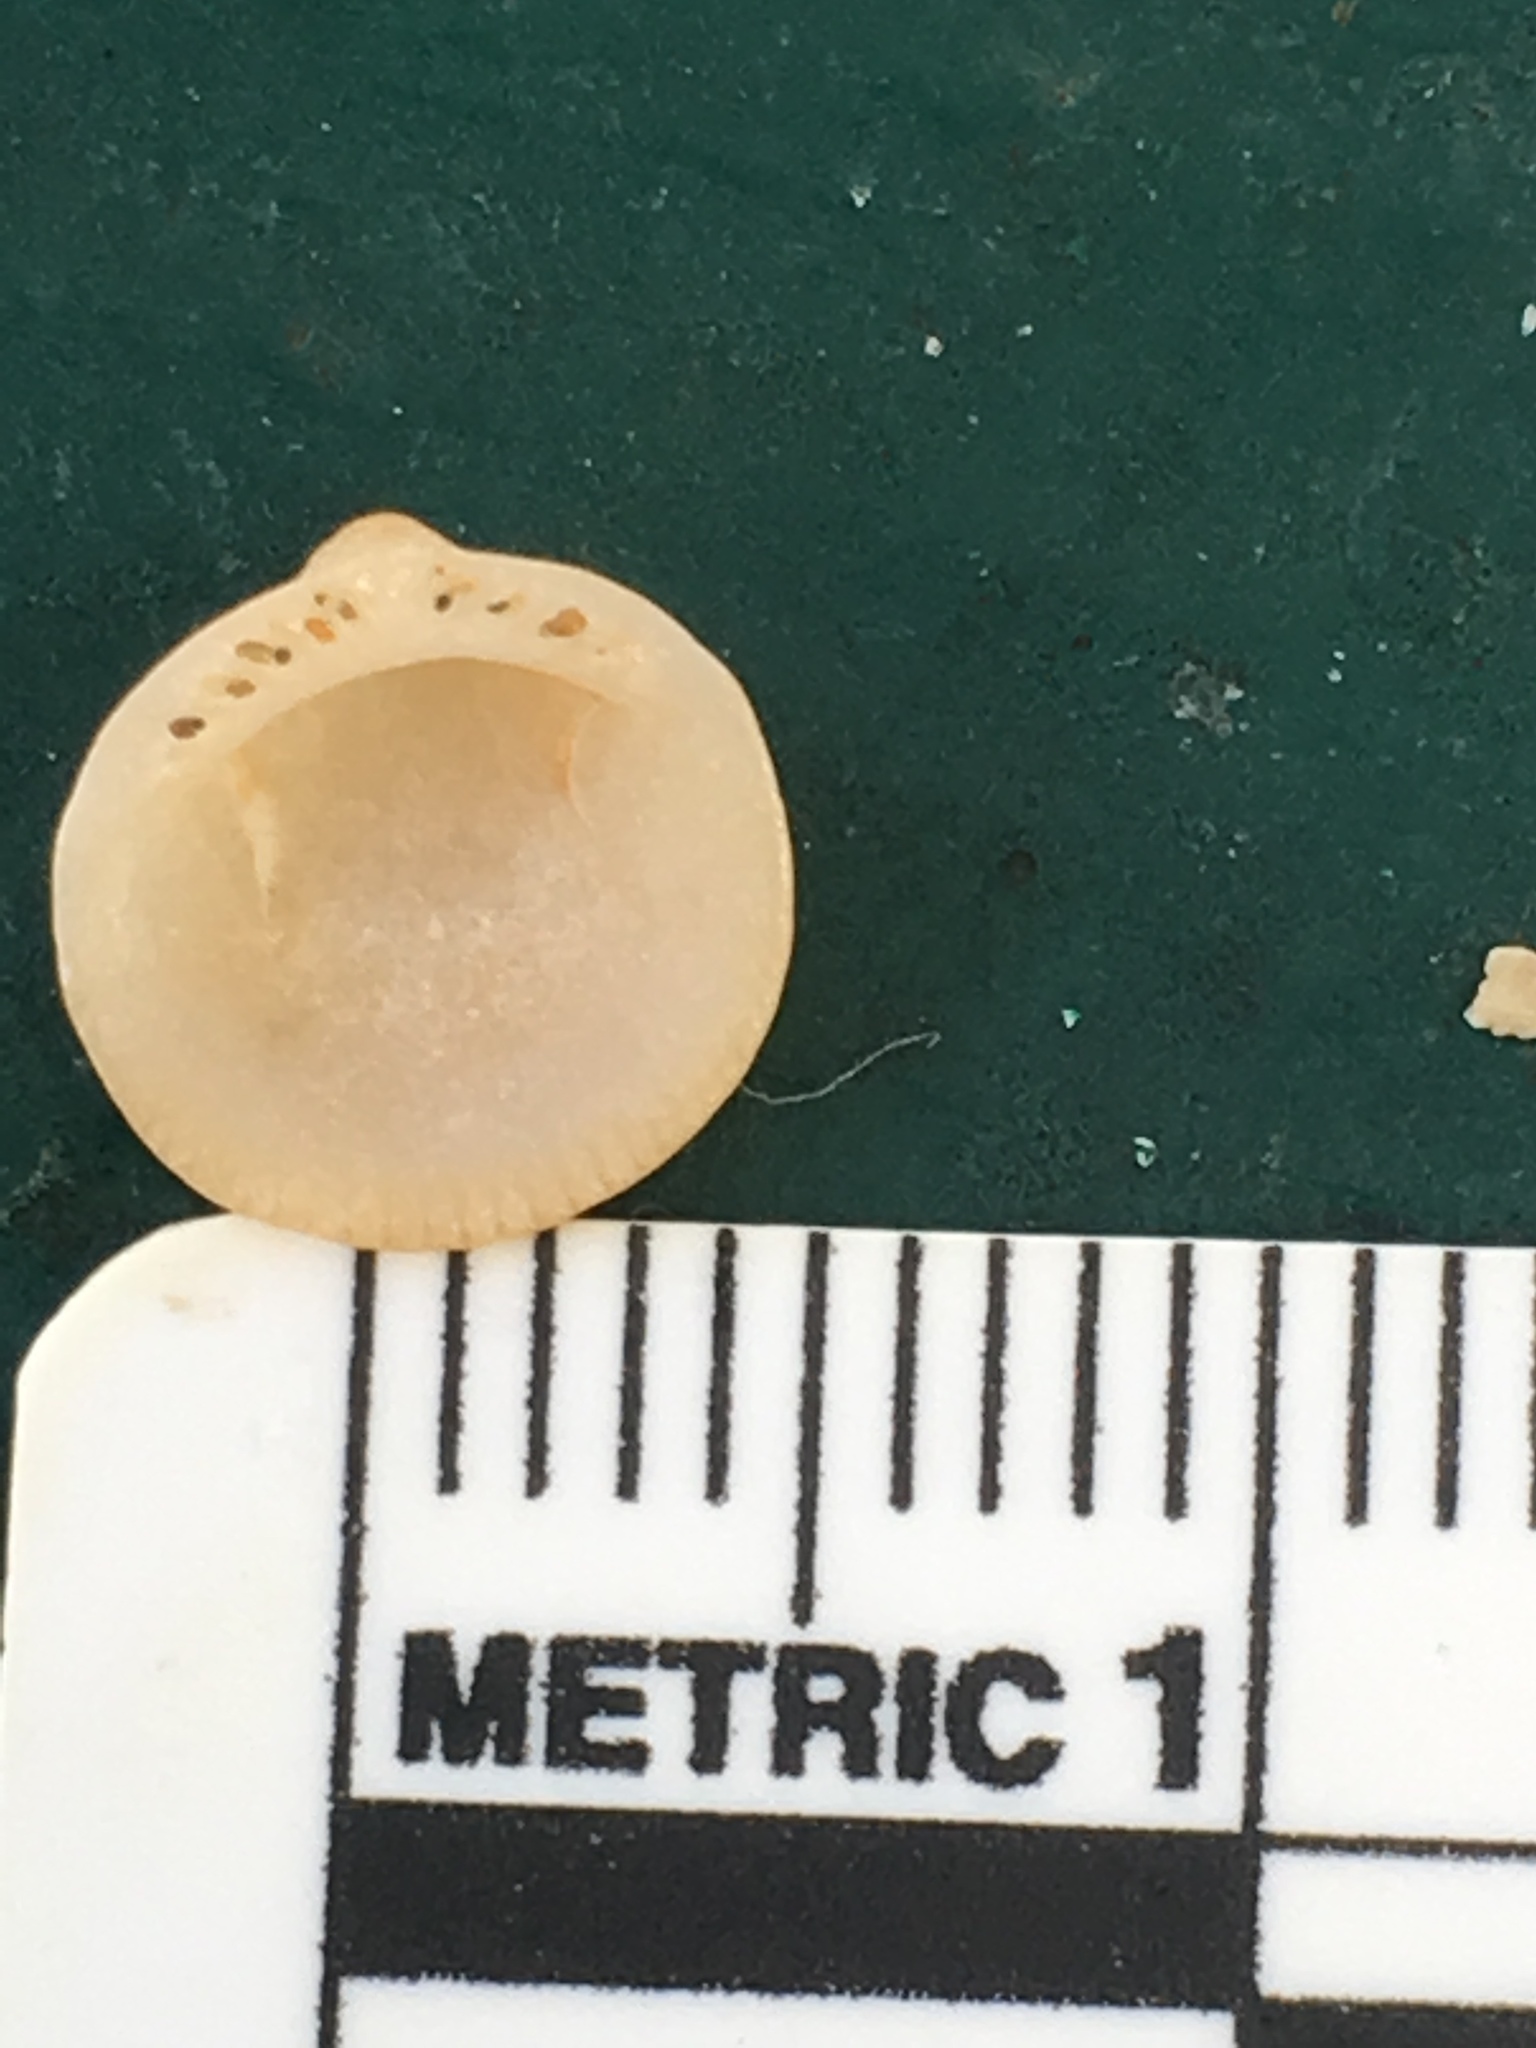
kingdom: Animalia
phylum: Mollusca
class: Bivalvia
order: Arcida
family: Glycymerididae
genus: Glycymeris
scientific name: Glycymeris americana
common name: American bittersweet
